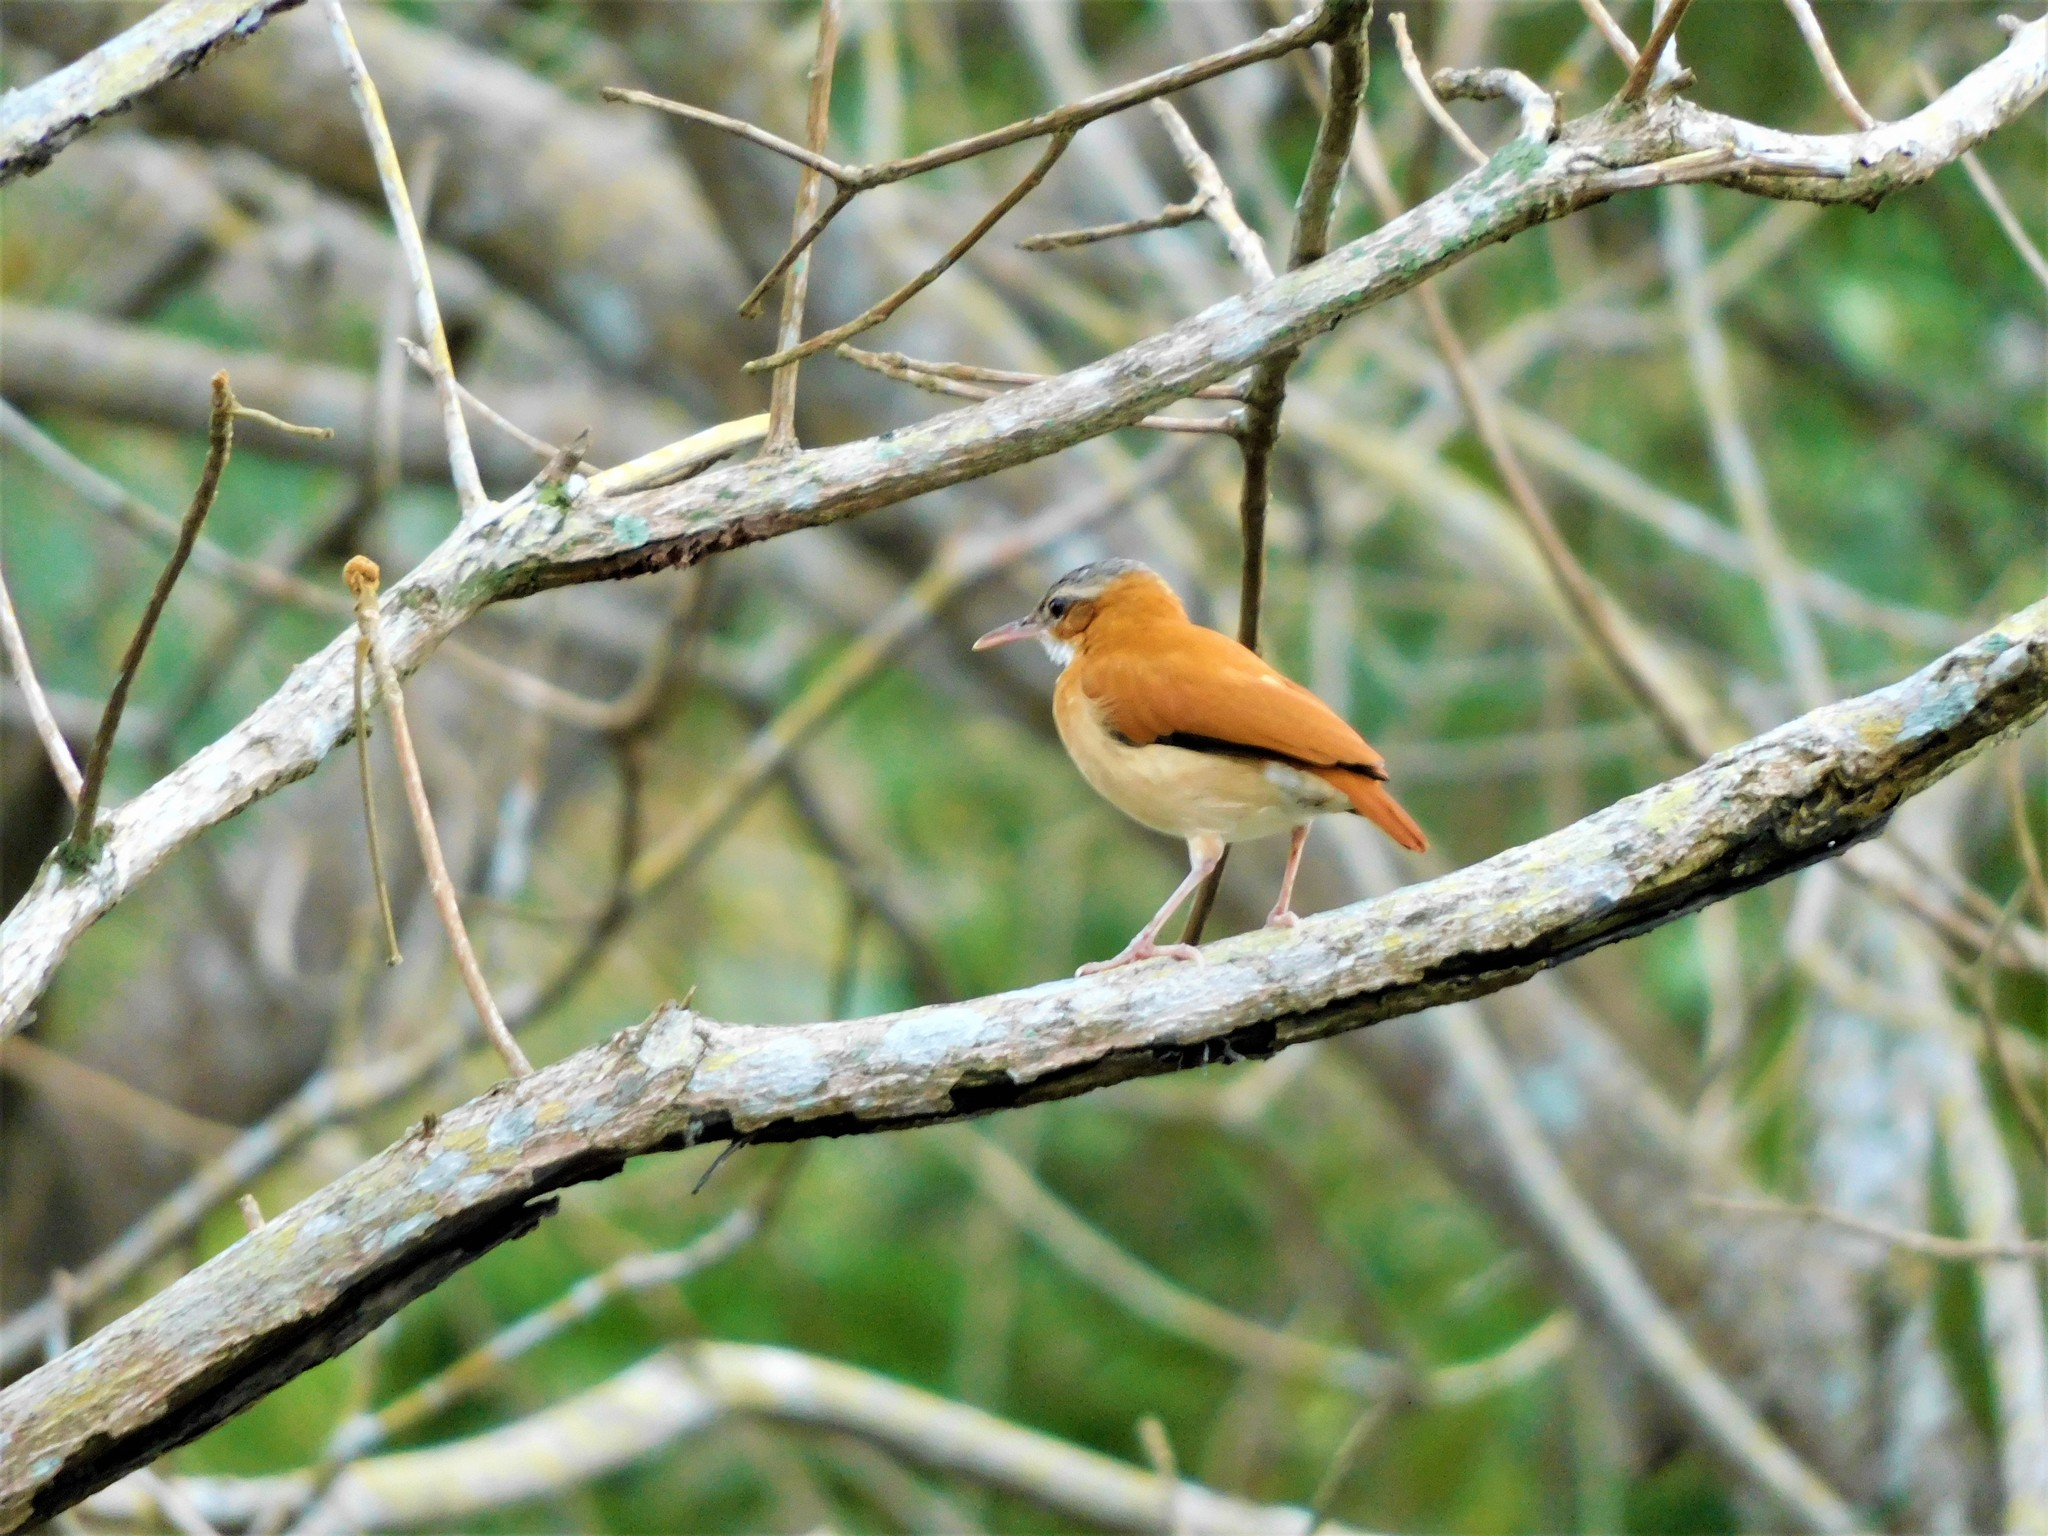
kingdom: Animalia
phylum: Chordata
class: Aves
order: Passeriformes
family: Furnariidae
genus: Furnarius
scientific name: Furnarius longirostris
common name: Caribbean hornero
